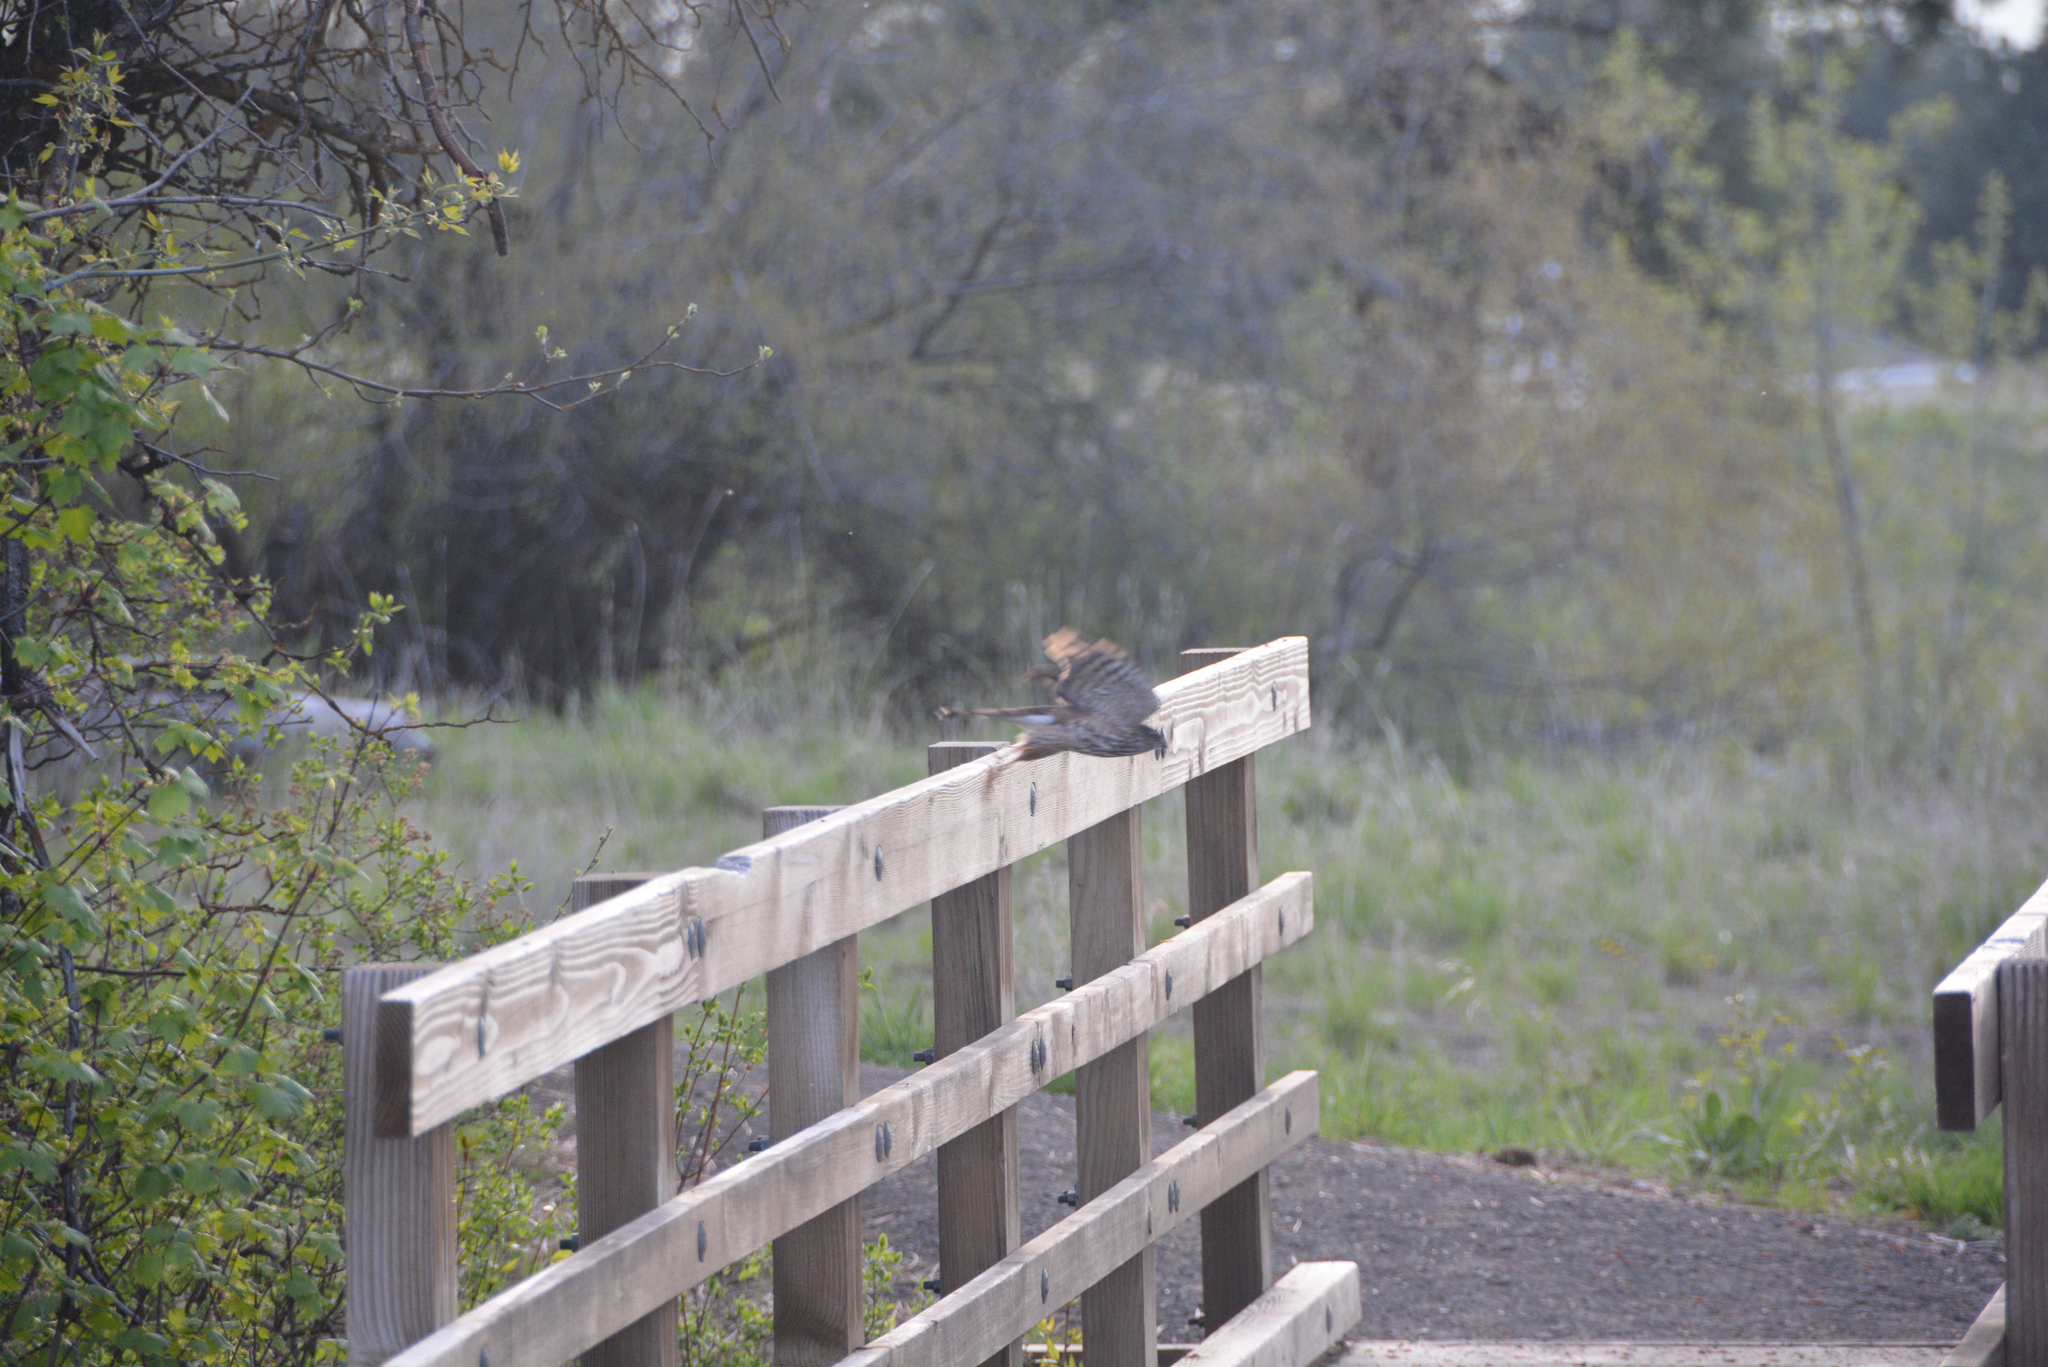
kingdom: Animalia
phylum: Chordata
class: Aves
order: Accipitriformes
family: Accipitridae
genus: Accipiter
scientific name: Accipiter striatus
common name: Sharp-shinned hawk
